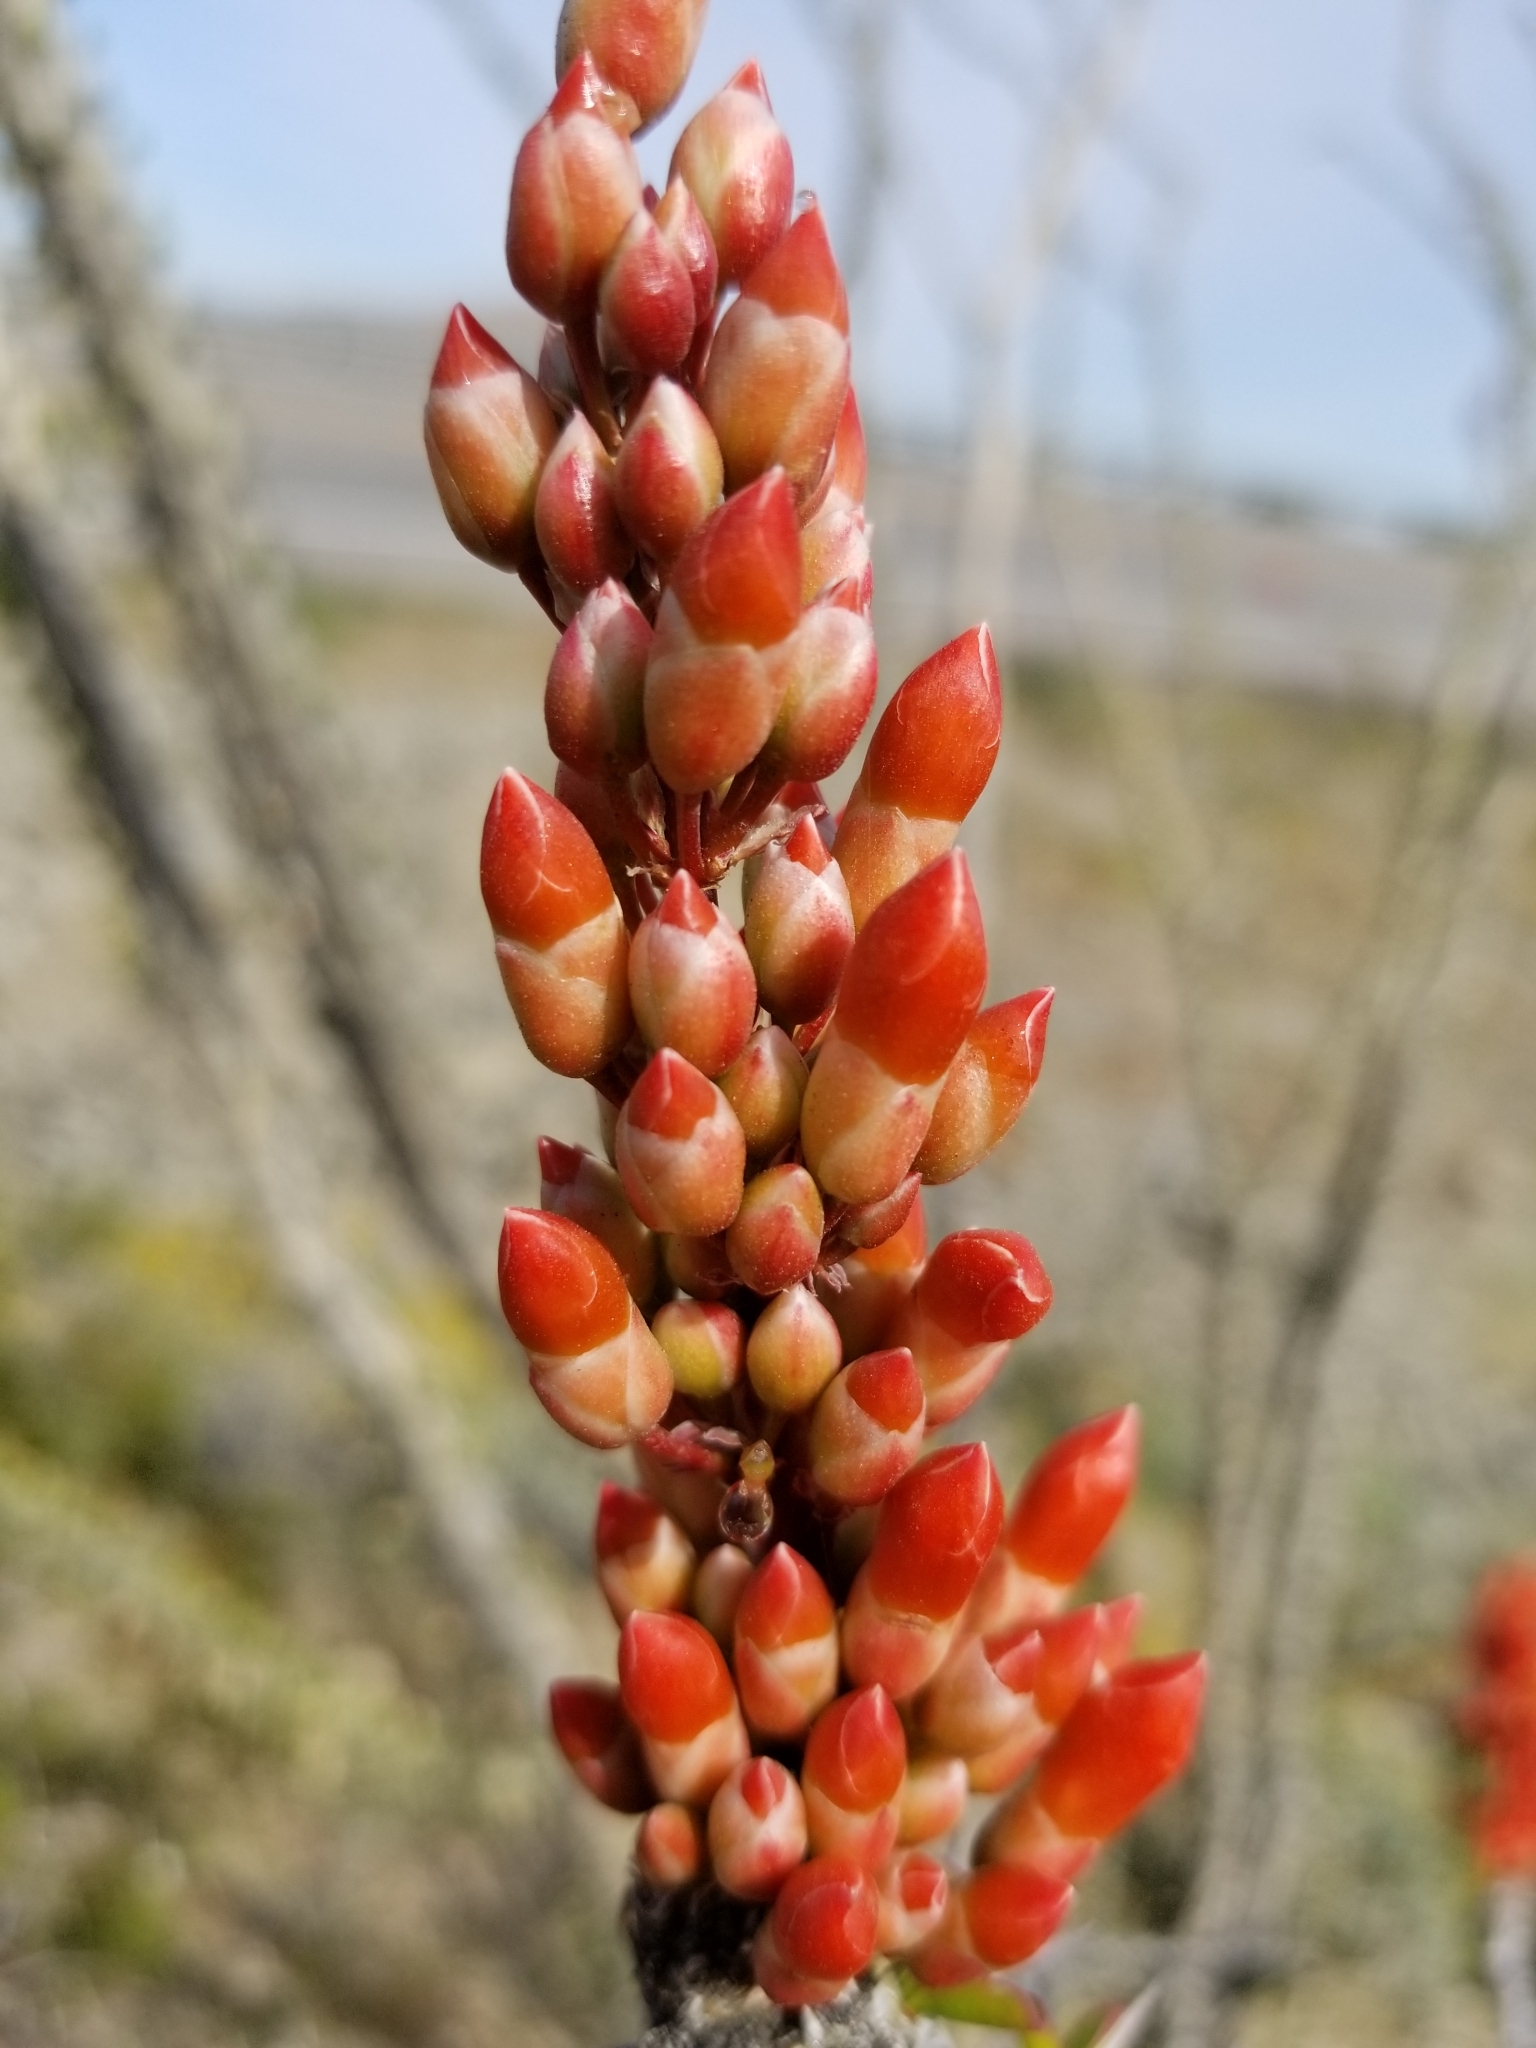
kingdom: Plantae
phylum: Tracheophyta
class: Magnoliopsida
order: Ericales
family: Fouquieriaceae
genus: Fouquieria
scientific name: Fouquieria splendens
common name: Vine-cactus
